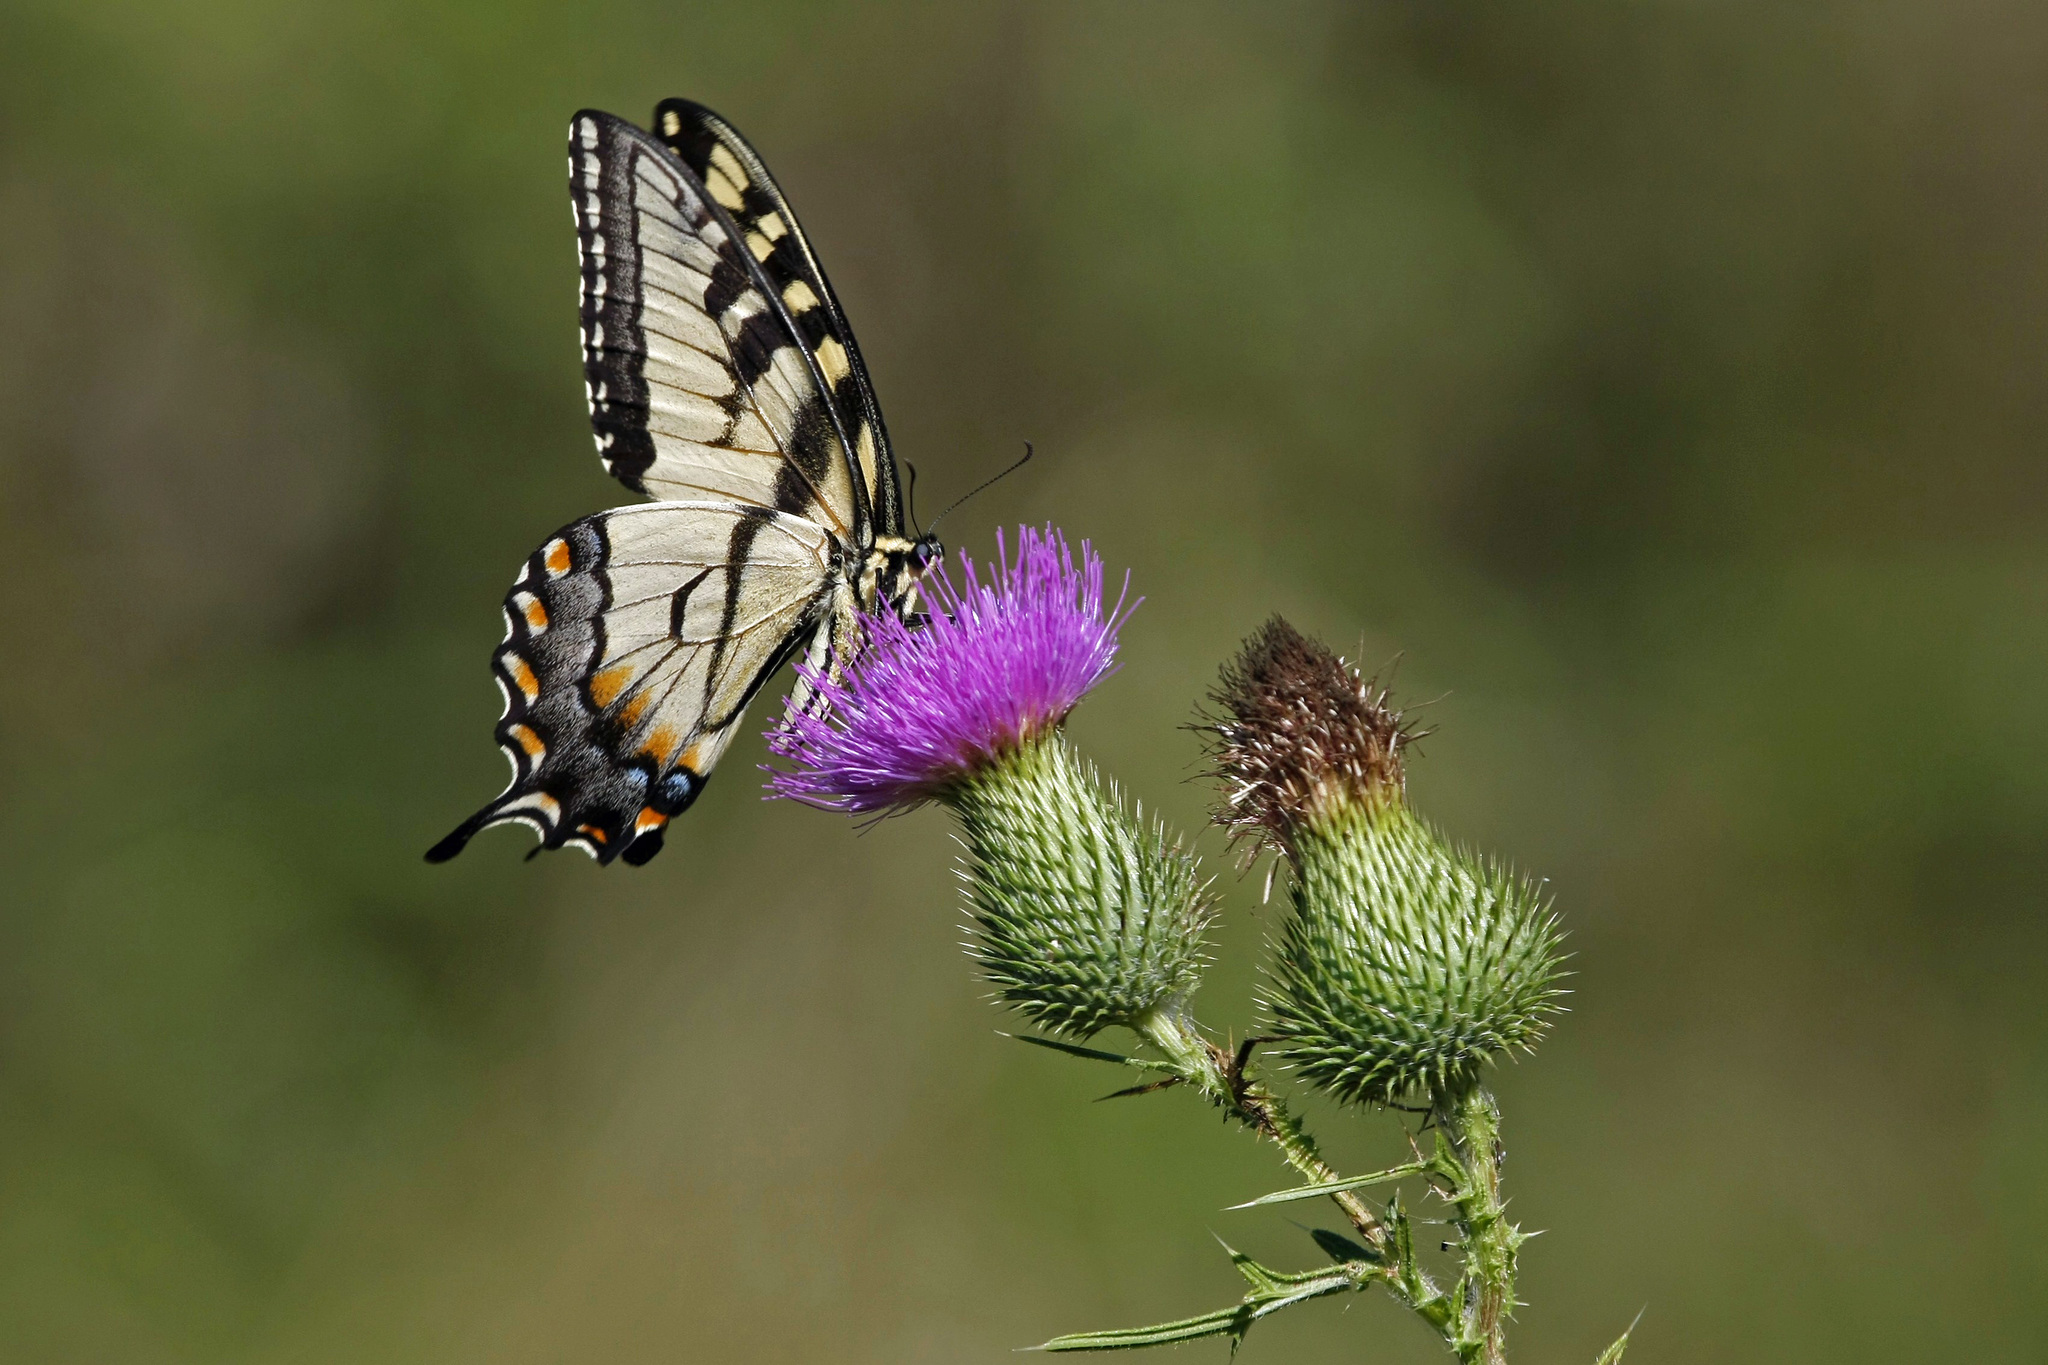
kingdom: Animalia
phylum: Arthropoda
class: Insecta
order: Lepidoptera
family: Papilionidae
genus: Papilio
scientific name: Papilio glaucus
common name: Tiger swallowtail
